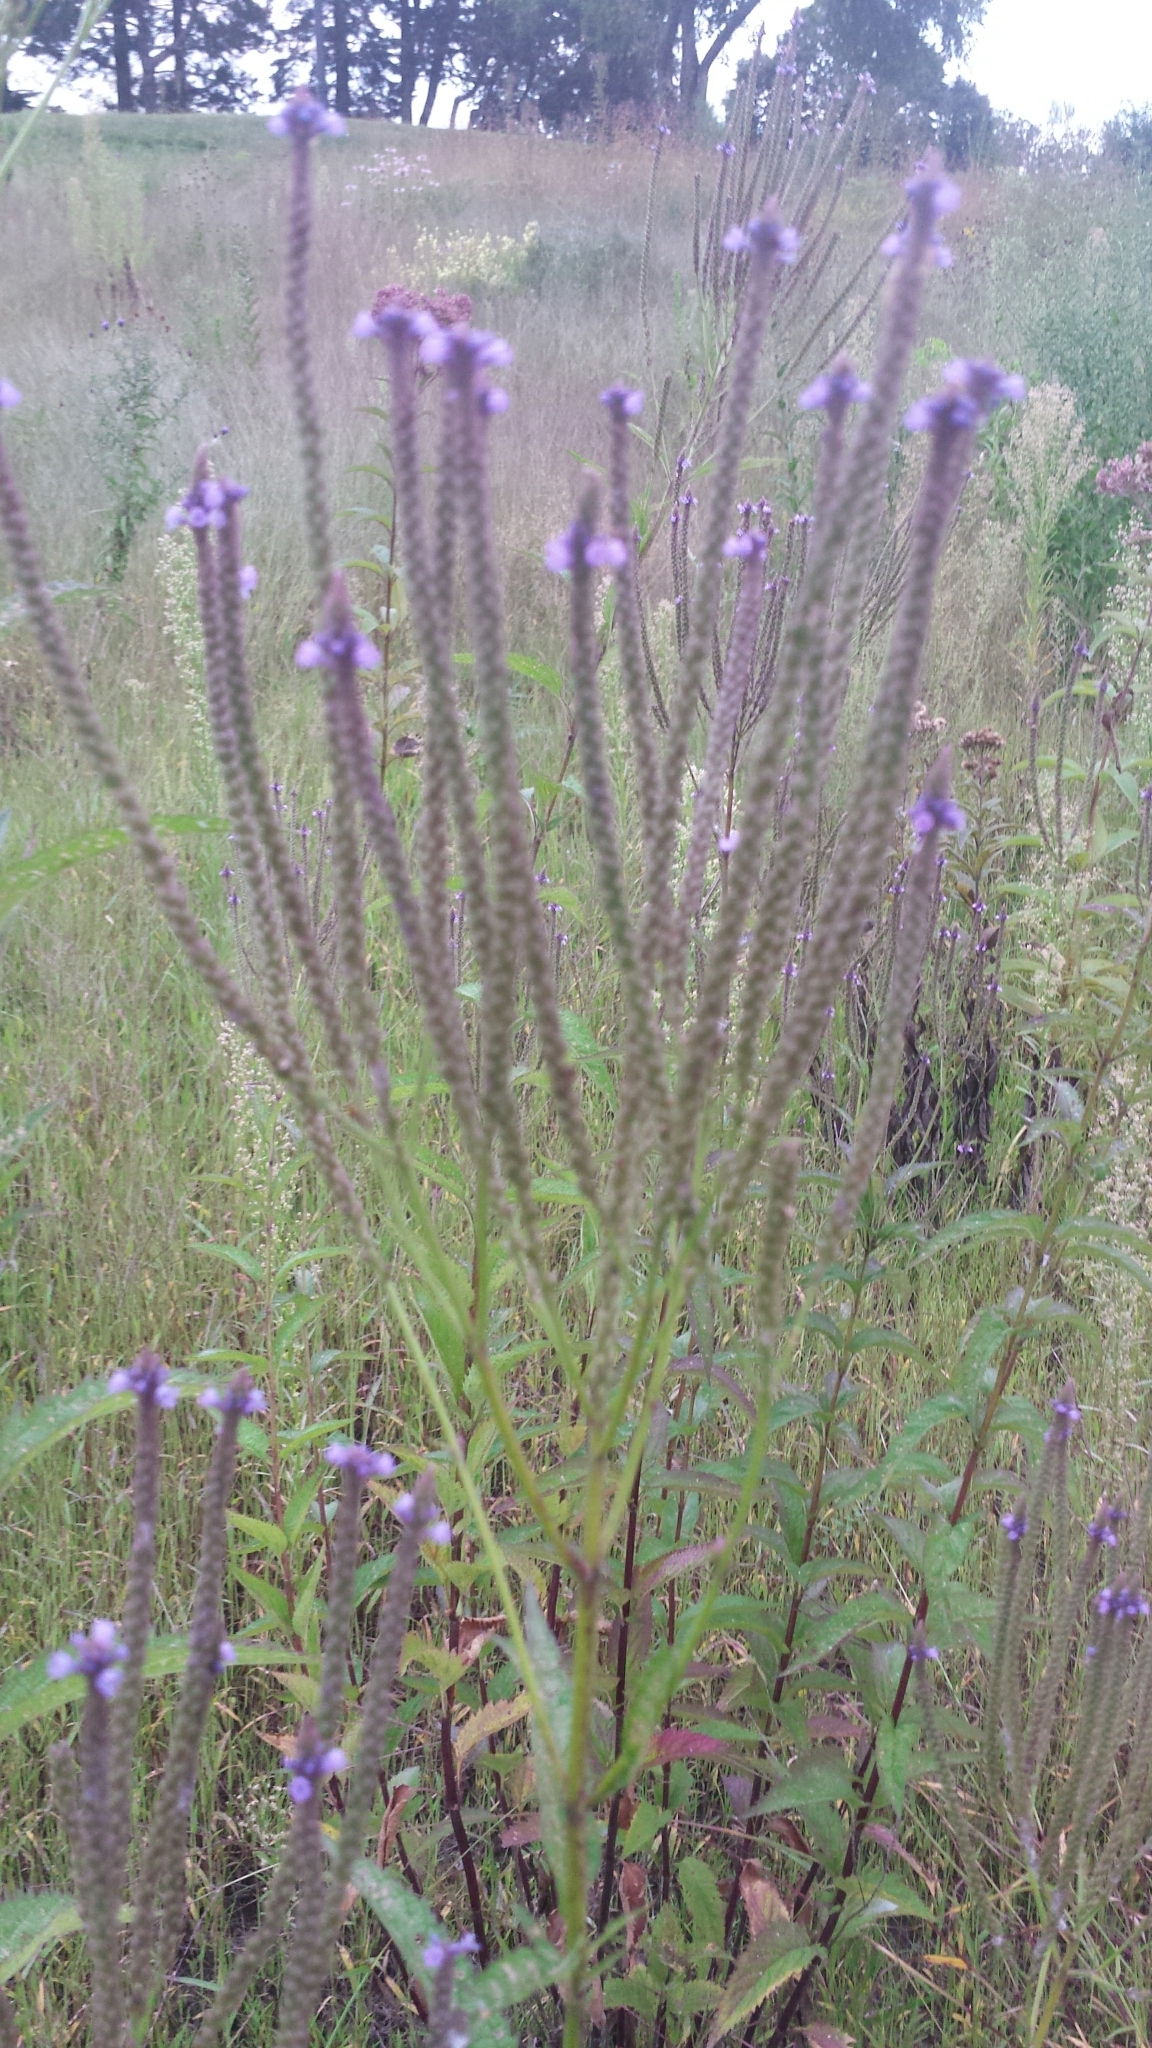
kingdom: Plantae
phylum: Tracheophyta
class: Magnoliopsida
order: Lamiales
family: Verbenaceae
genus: Verbena
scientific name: Verbena hastata
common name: American blue vervain
